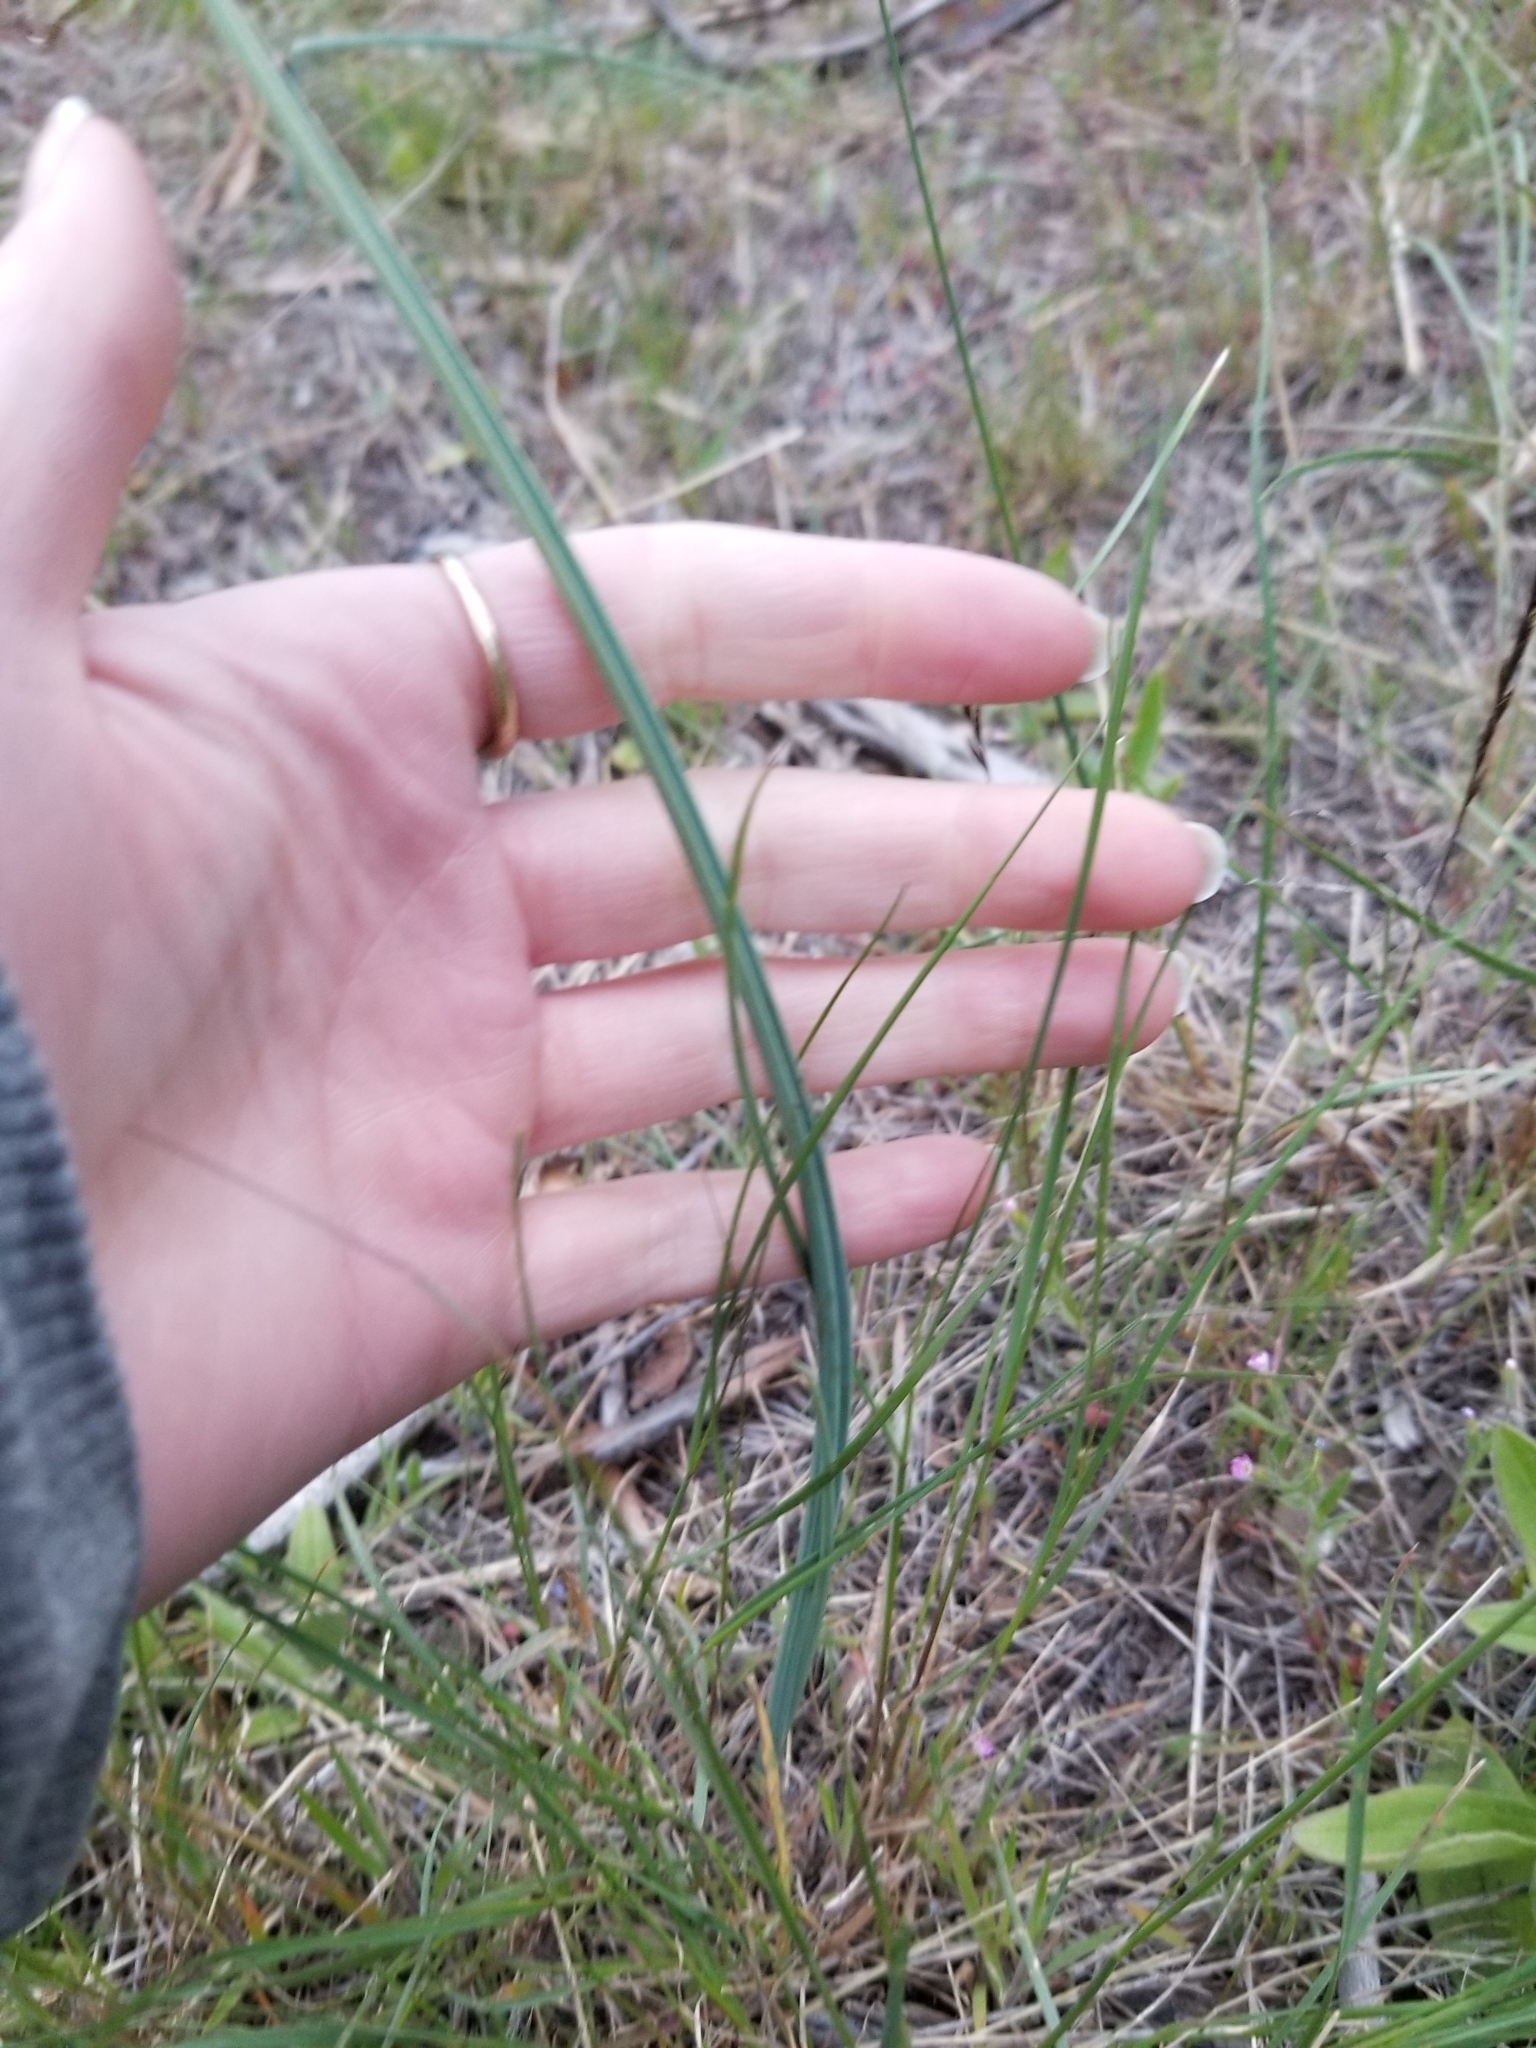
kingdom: Plantae
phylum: Tracheophyta
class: Liliopsida
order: Liliales
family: Liliaceae
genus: Calochortus
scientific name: Calochortus macrocarpus
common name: Green-band mariposa lily
